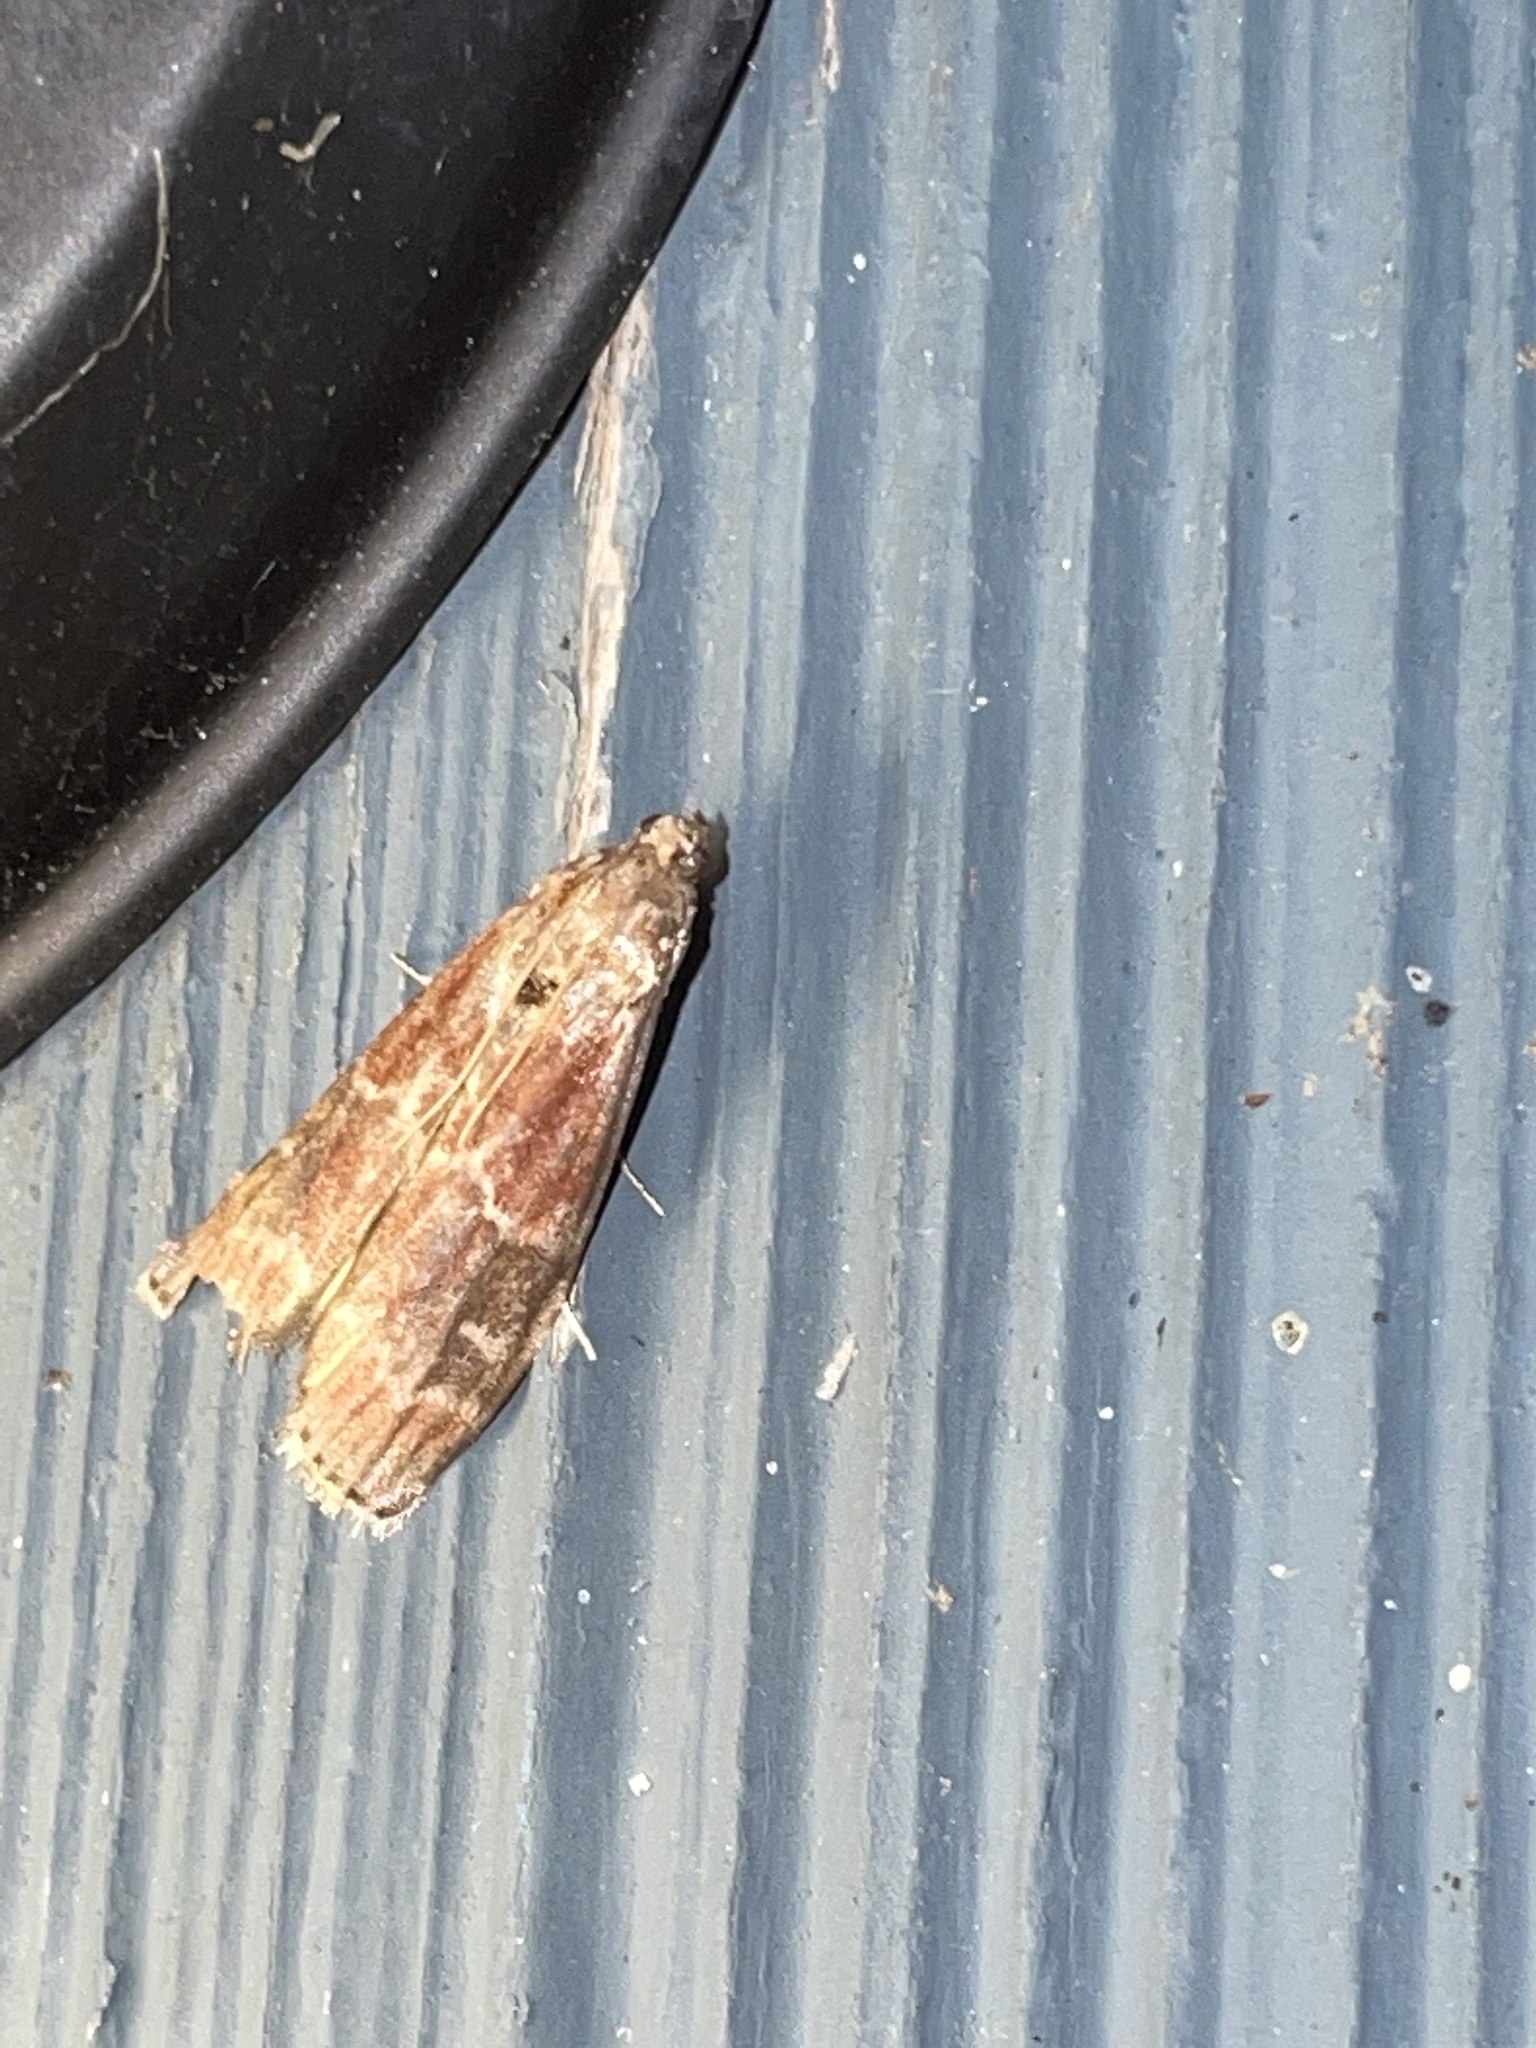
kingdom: Animalia
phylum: Arthropoda
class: Insecta
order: Lepidoptera
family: Pyralidae
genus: Euzophera
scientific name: Euzophera ostricolorella
